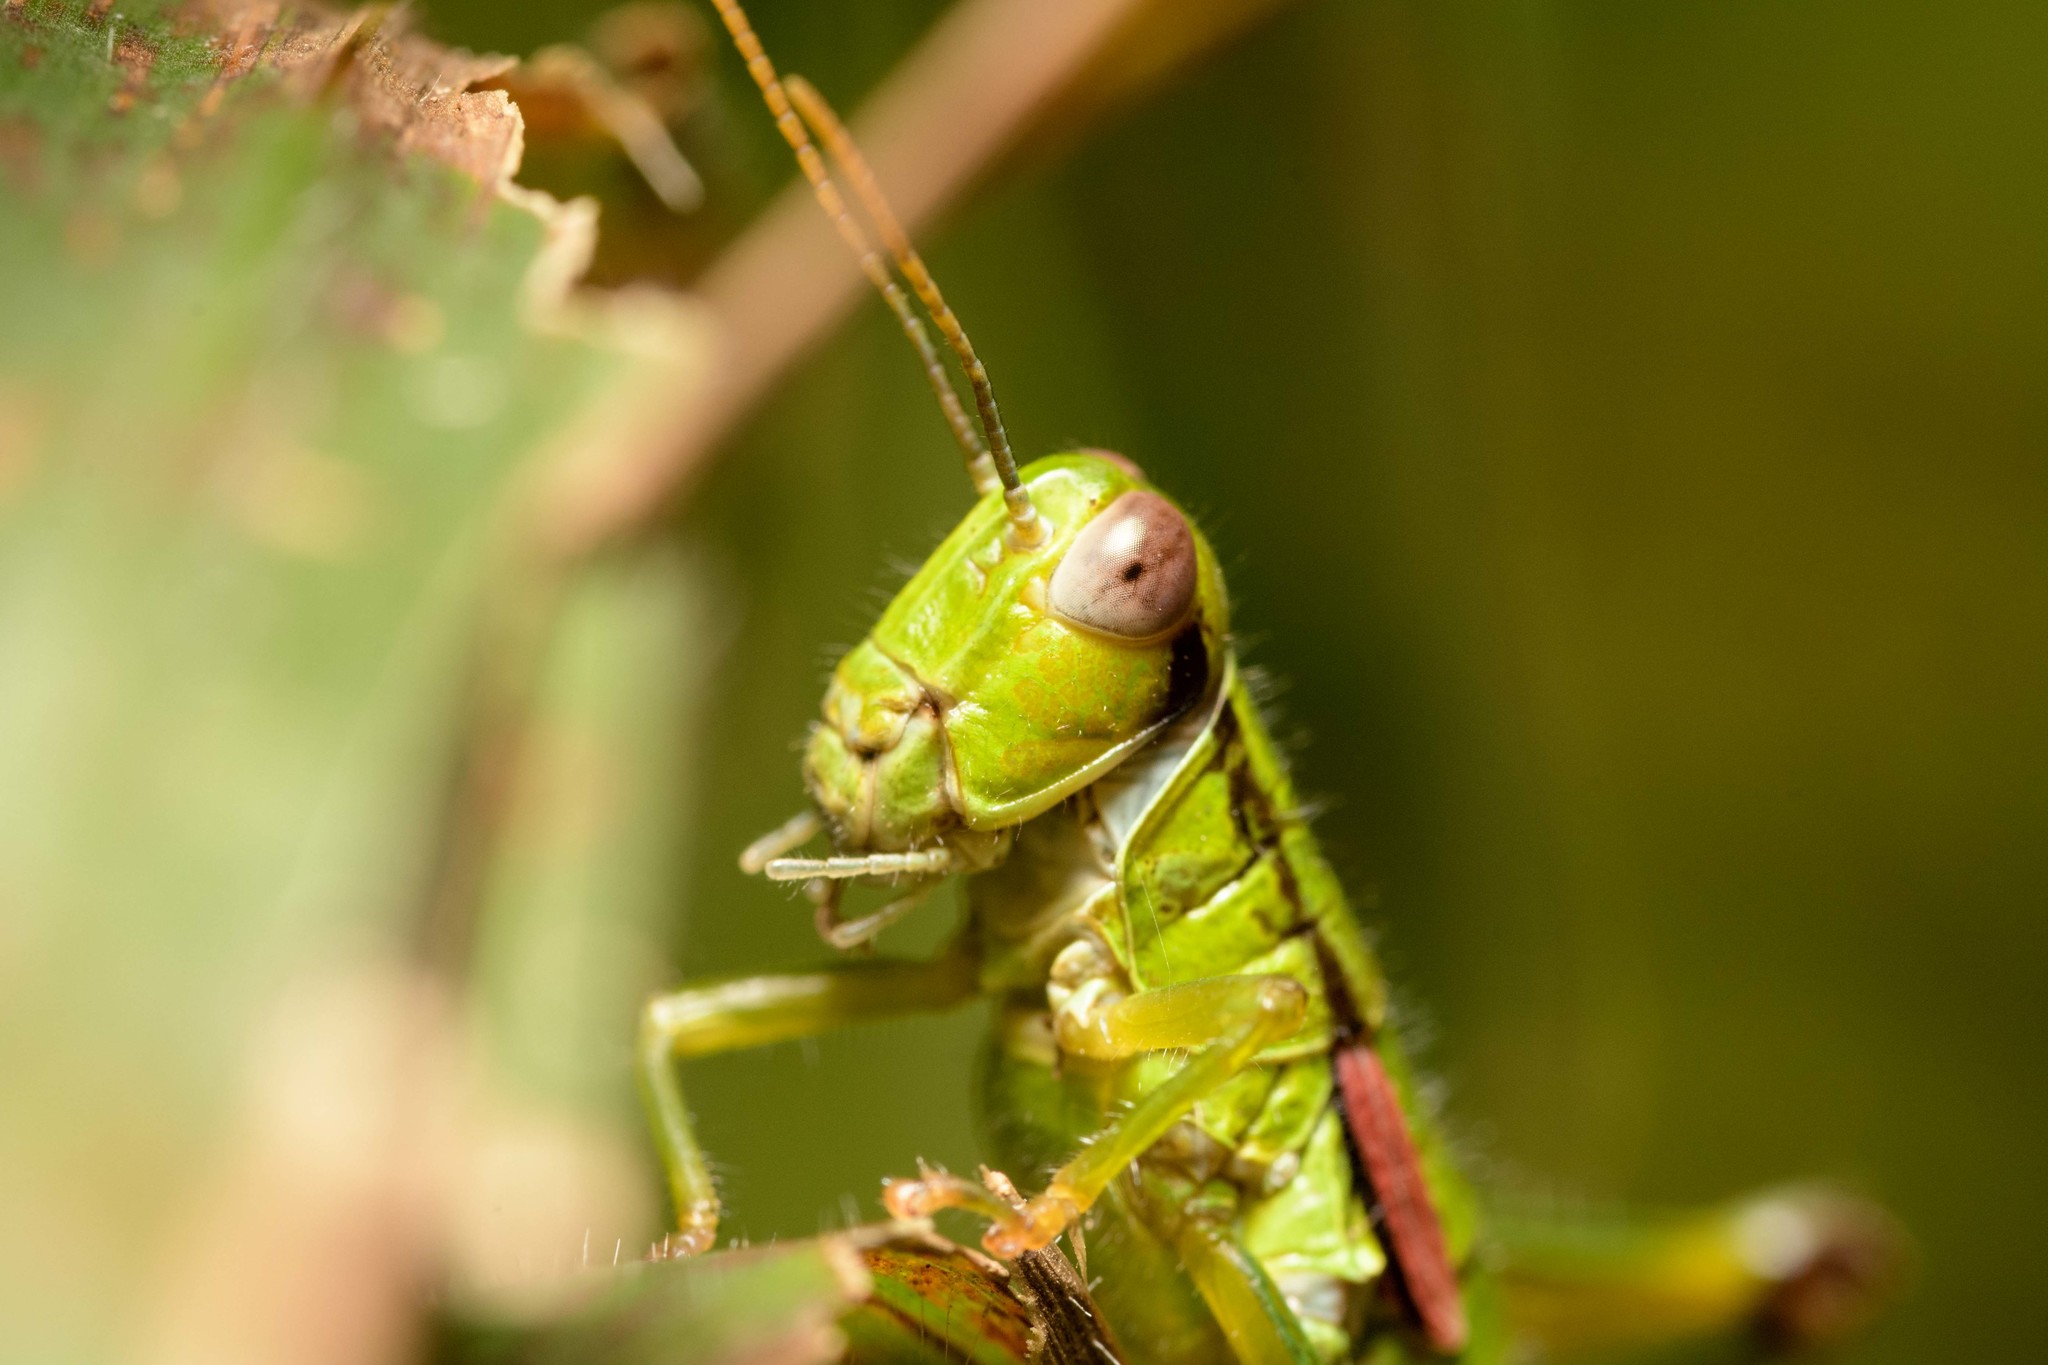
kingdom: Animalia
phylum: Arthropoda
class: Insecta
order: Orthoptera
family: Acrididae
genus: Odontopodisma
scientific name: Odontopodisma schmidtii
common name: Schmidt's mountain grasshopper
